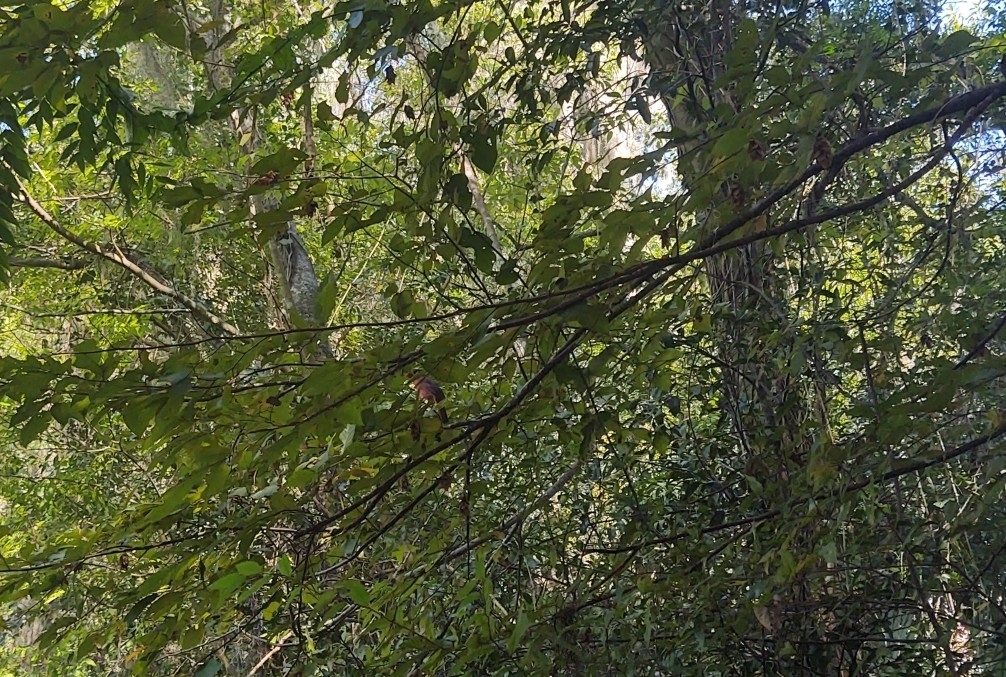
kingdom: Animalia
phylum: Chordata
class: Aves
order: Passeriformes
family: Cardinalidae
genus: Cardinalis
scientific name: Cardinalis cardinalis
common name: Northern cardinal
